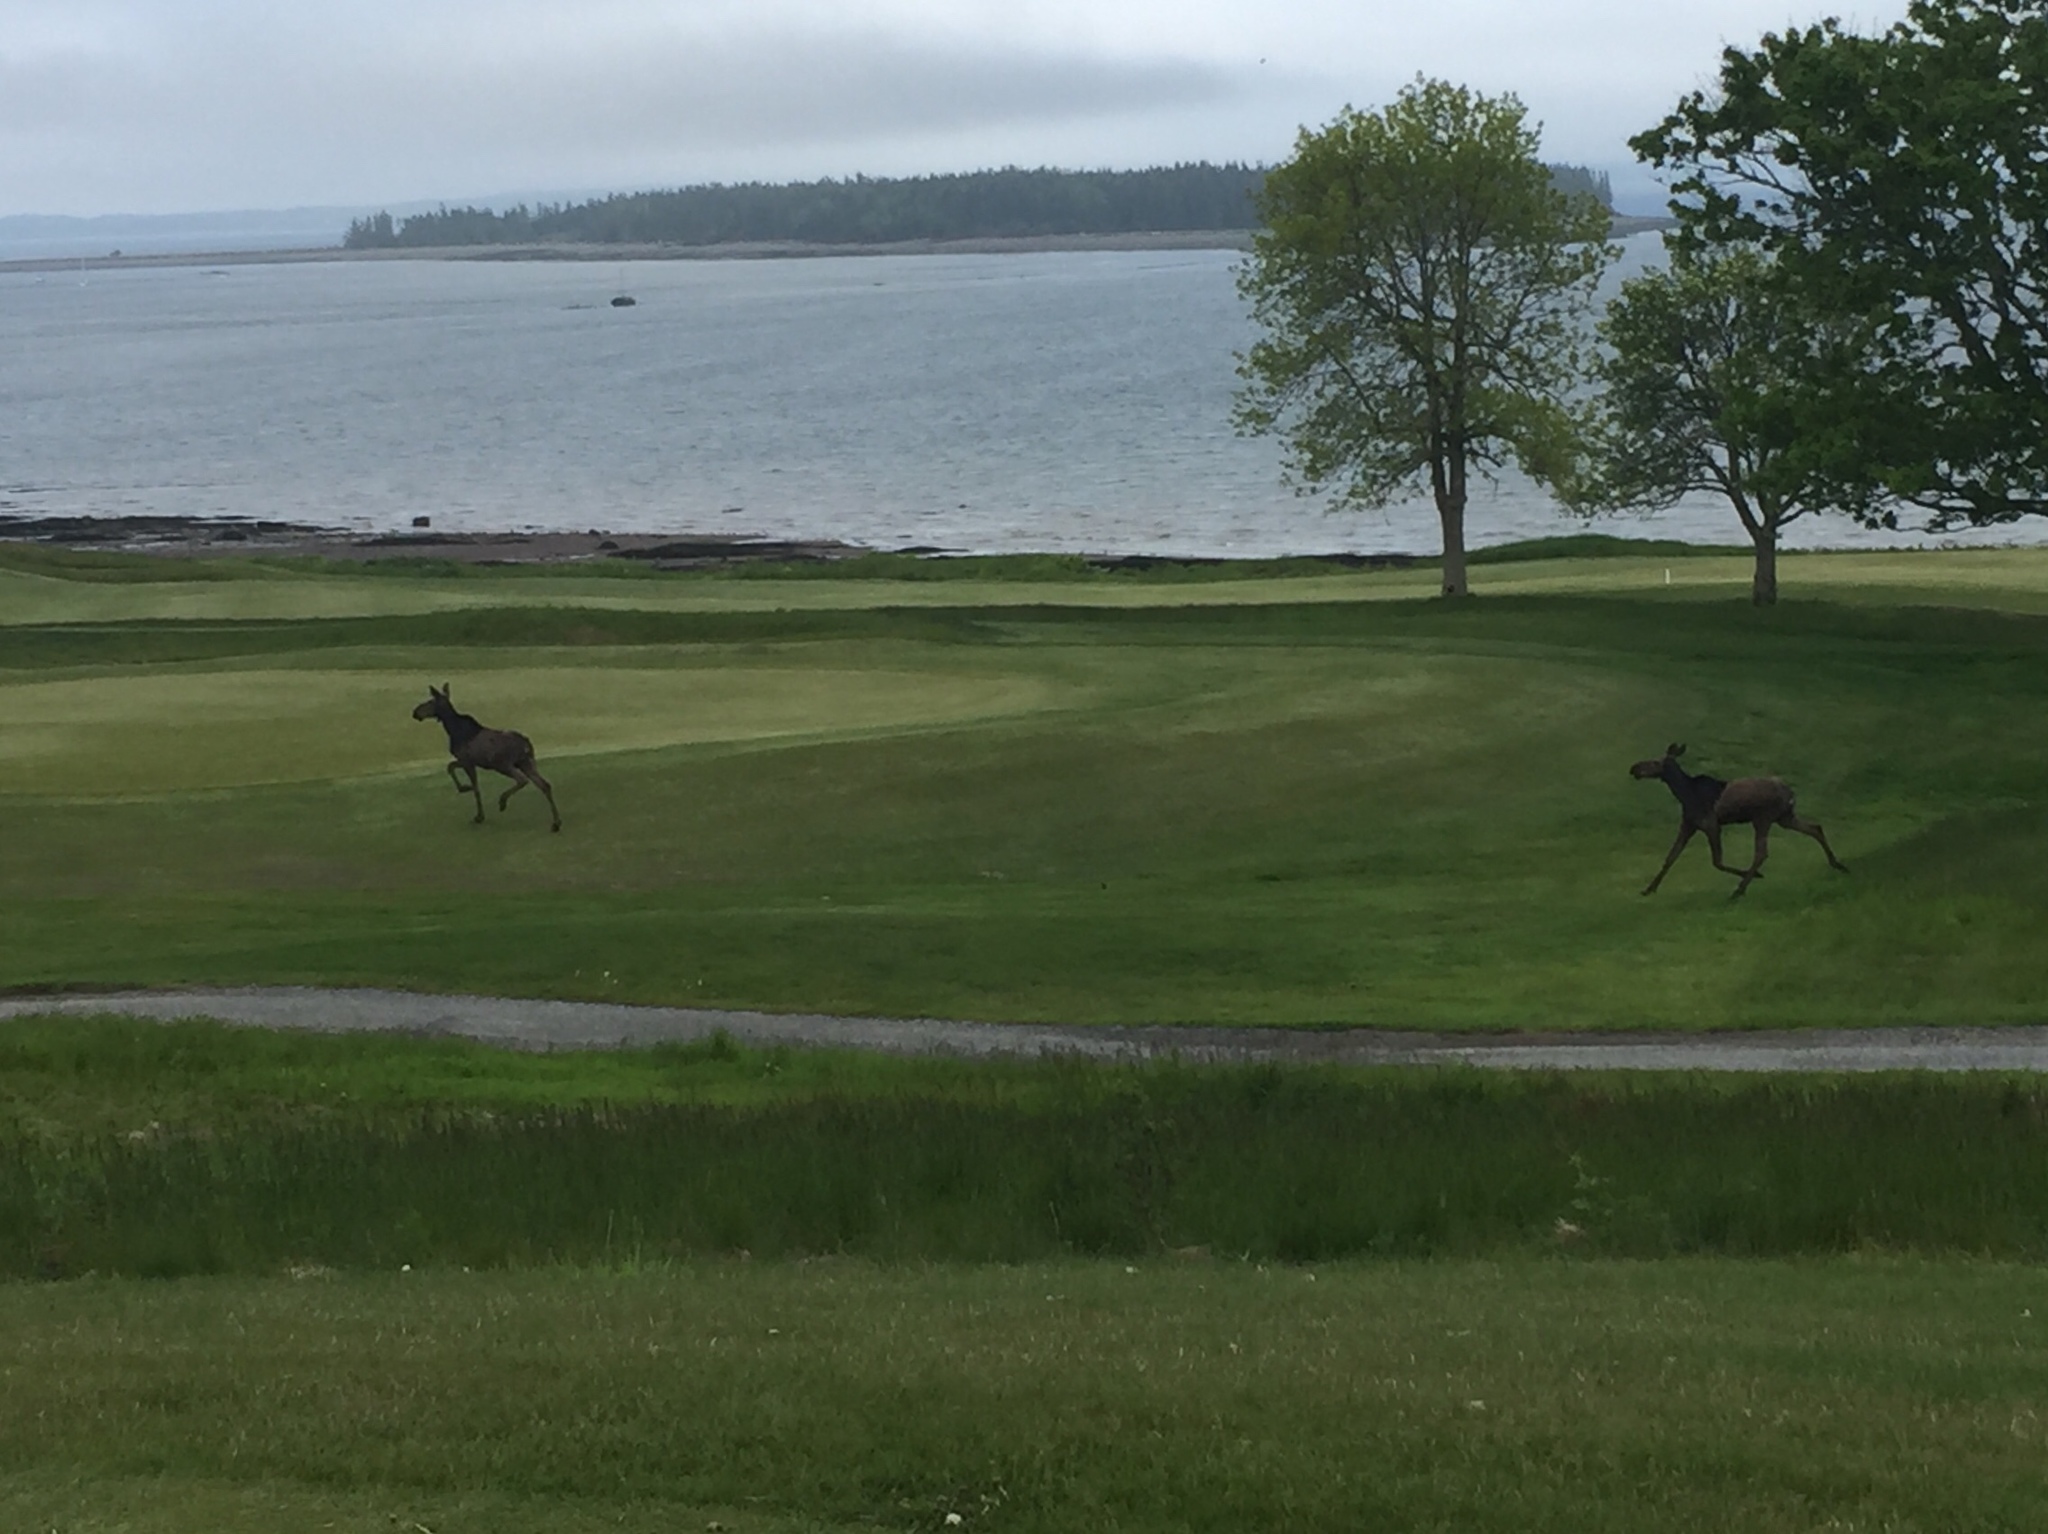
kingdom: Animalia
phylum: Chordata
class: Mammalia
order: Artiodactyla
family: Cervidae
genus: Alces
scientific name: Alces alces
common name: Moose
